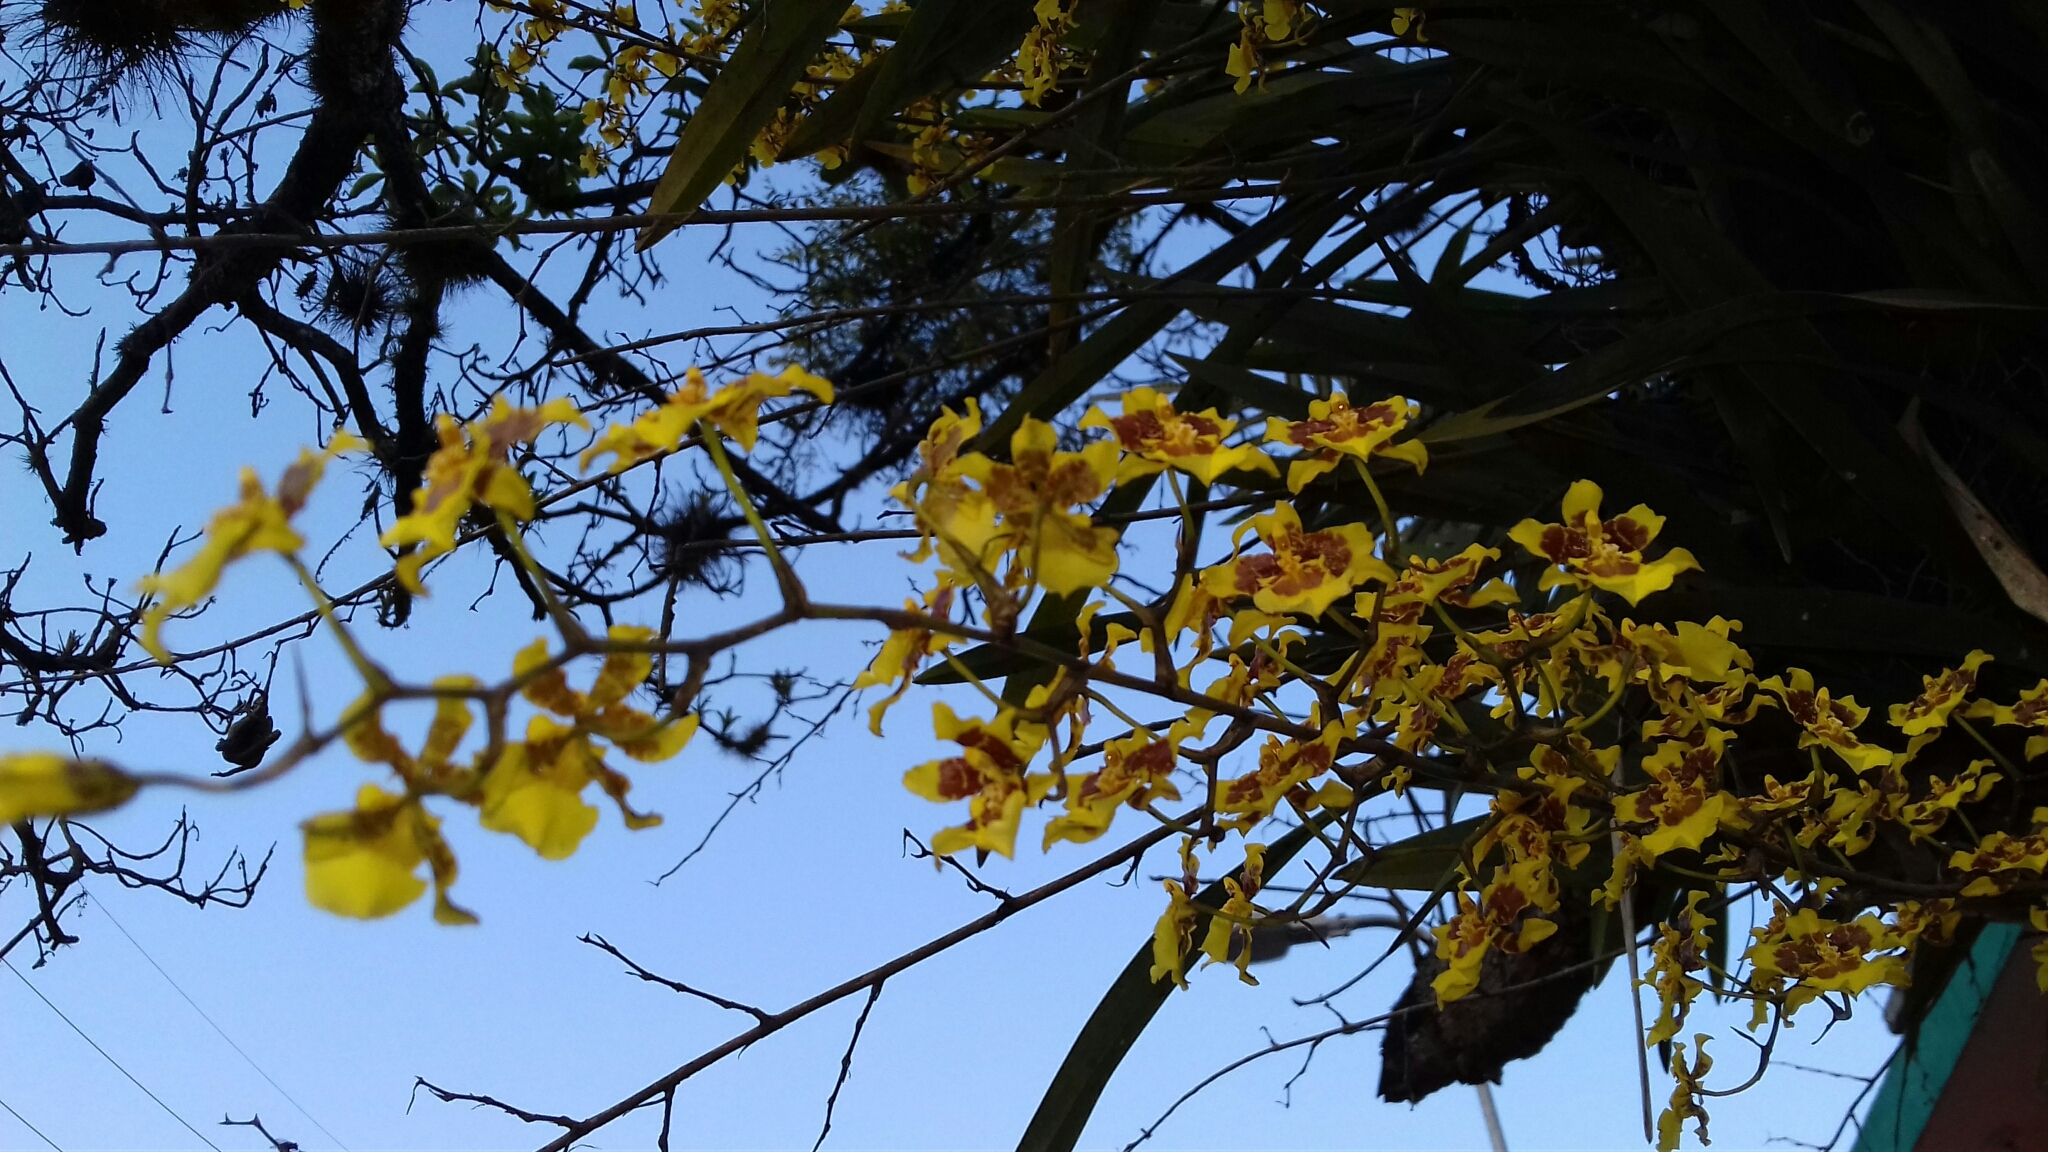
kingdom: Plantae
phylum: Tracheophyta
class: Liliopsida
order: Asparagales
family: Orchidaceae
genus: Oncidium
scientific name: Oncidium sphacelatum
